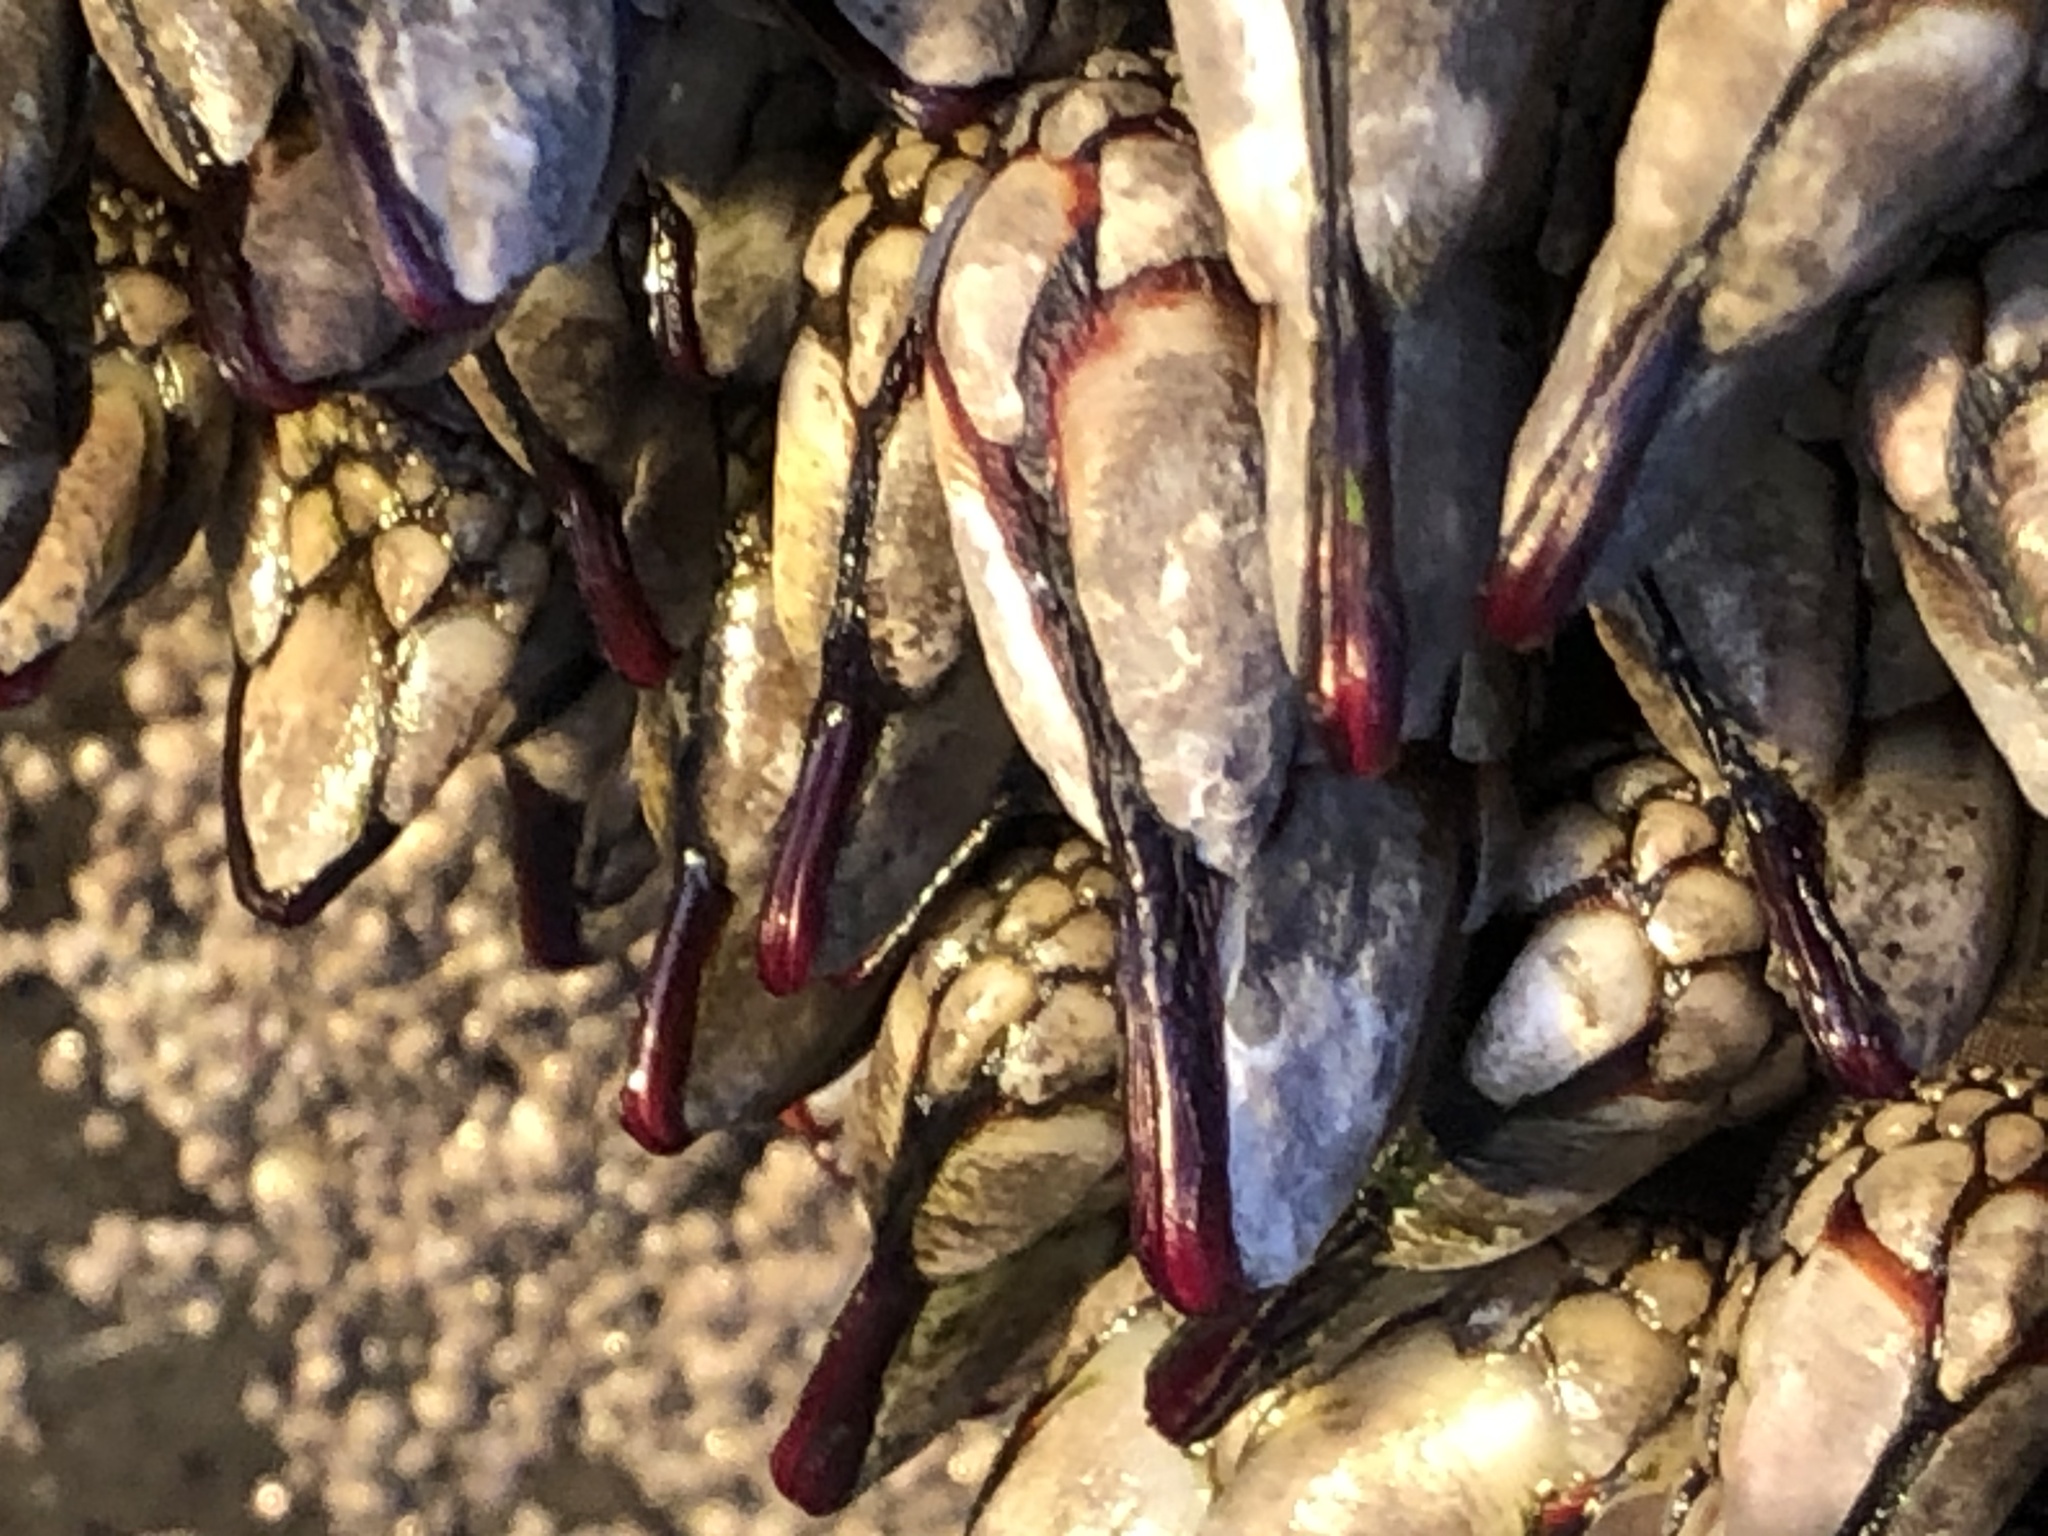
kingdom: Animalia
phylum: Arthropoda
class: Maxillopoda
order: Pedunculata
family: Pollicipedidae
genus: Pollicipes
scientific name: Pollicipes polymerus
